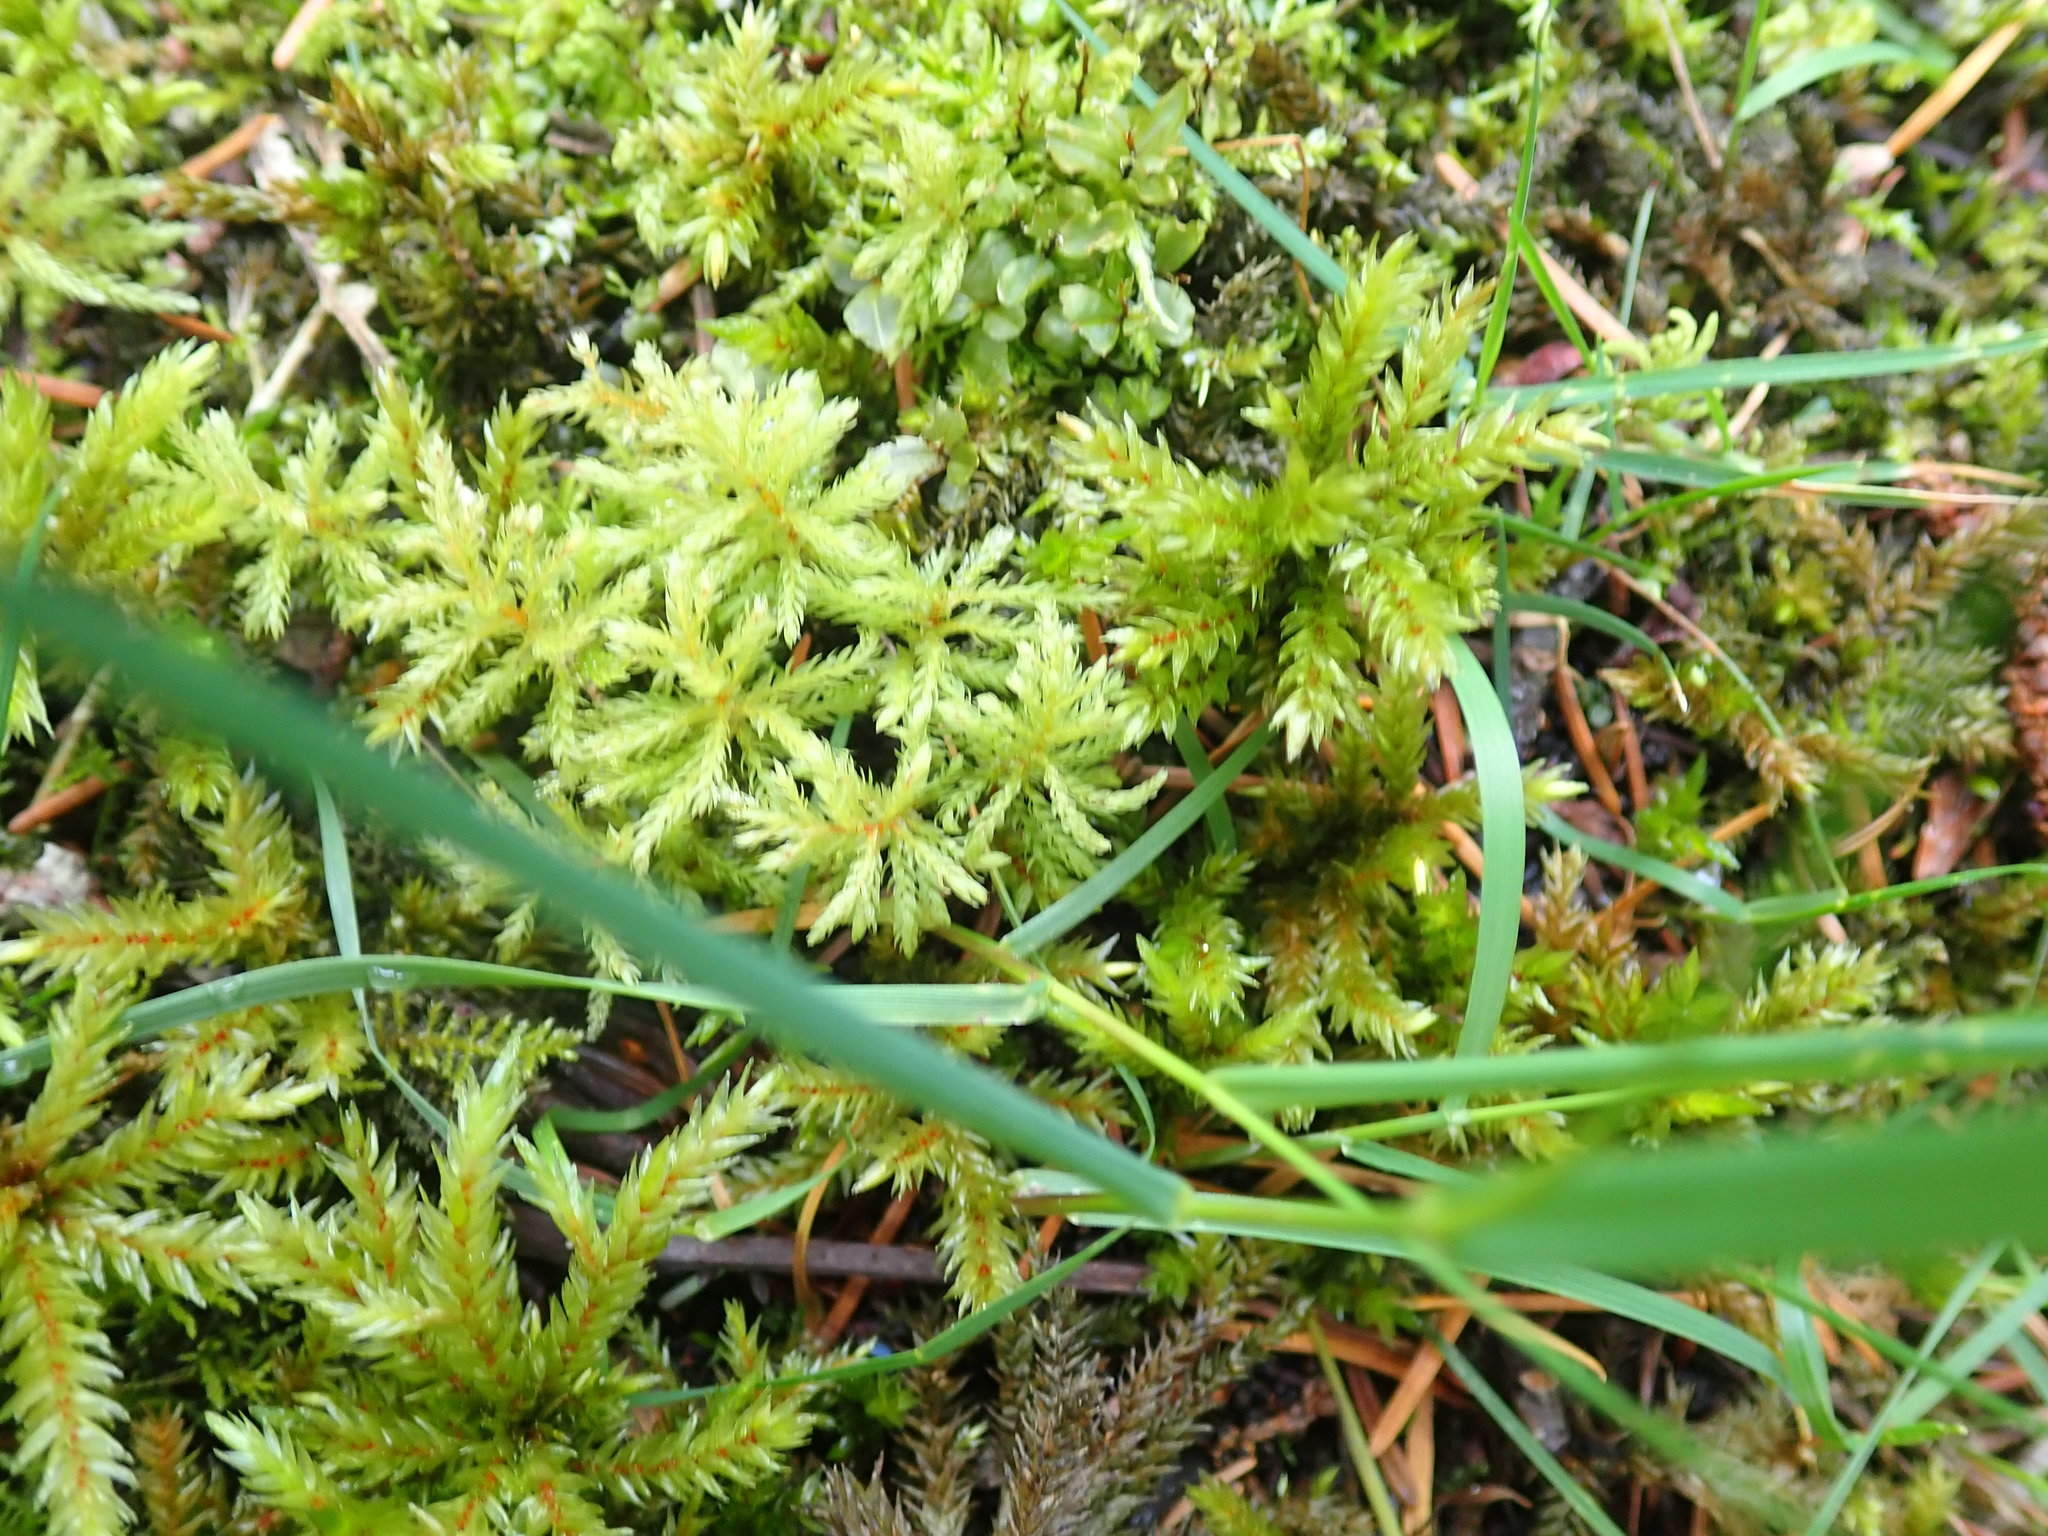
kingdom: Plantae
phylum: Bryophyta
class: Bryopsida
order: Hypnales
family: Climaciaceae
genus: Climacium
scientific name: Climacium dendroides
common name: Northern tree moss
